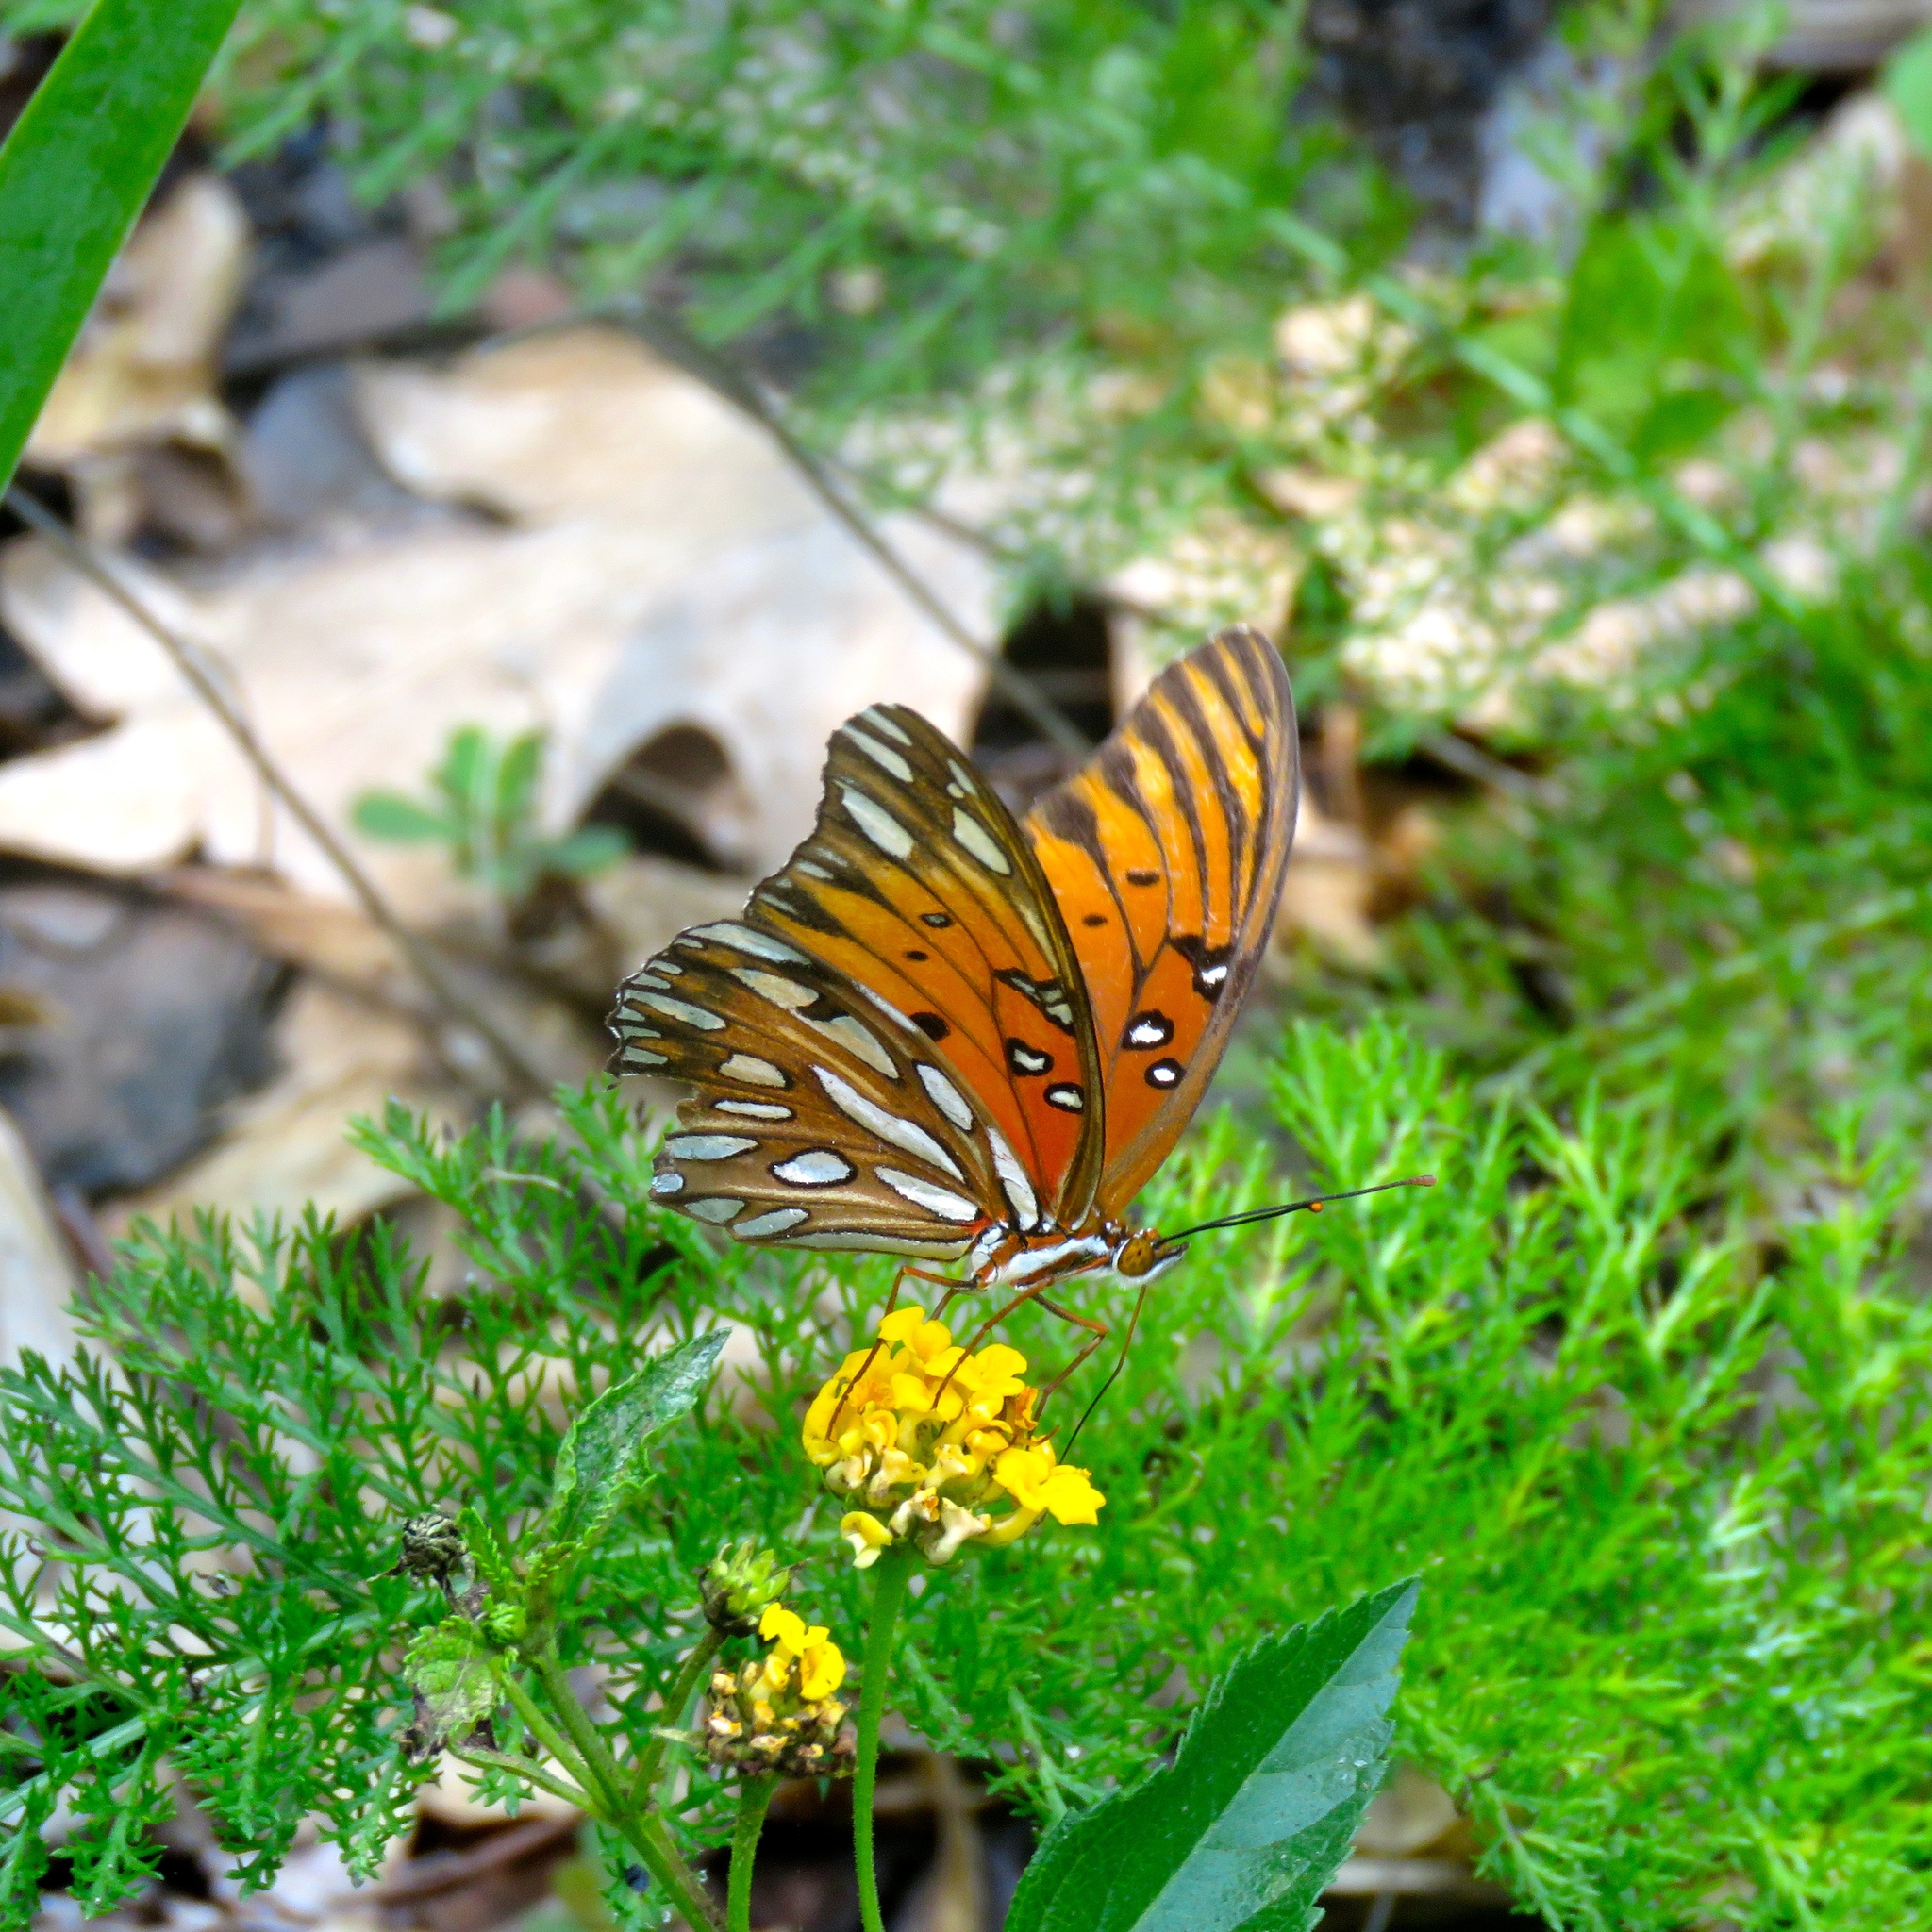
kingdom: Animalia
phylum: Arthropoda
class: Insecta
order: Lepidoptera
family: Nymphalidae
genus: Dione
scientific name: Dione vanillae
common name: Gulf fritillary
